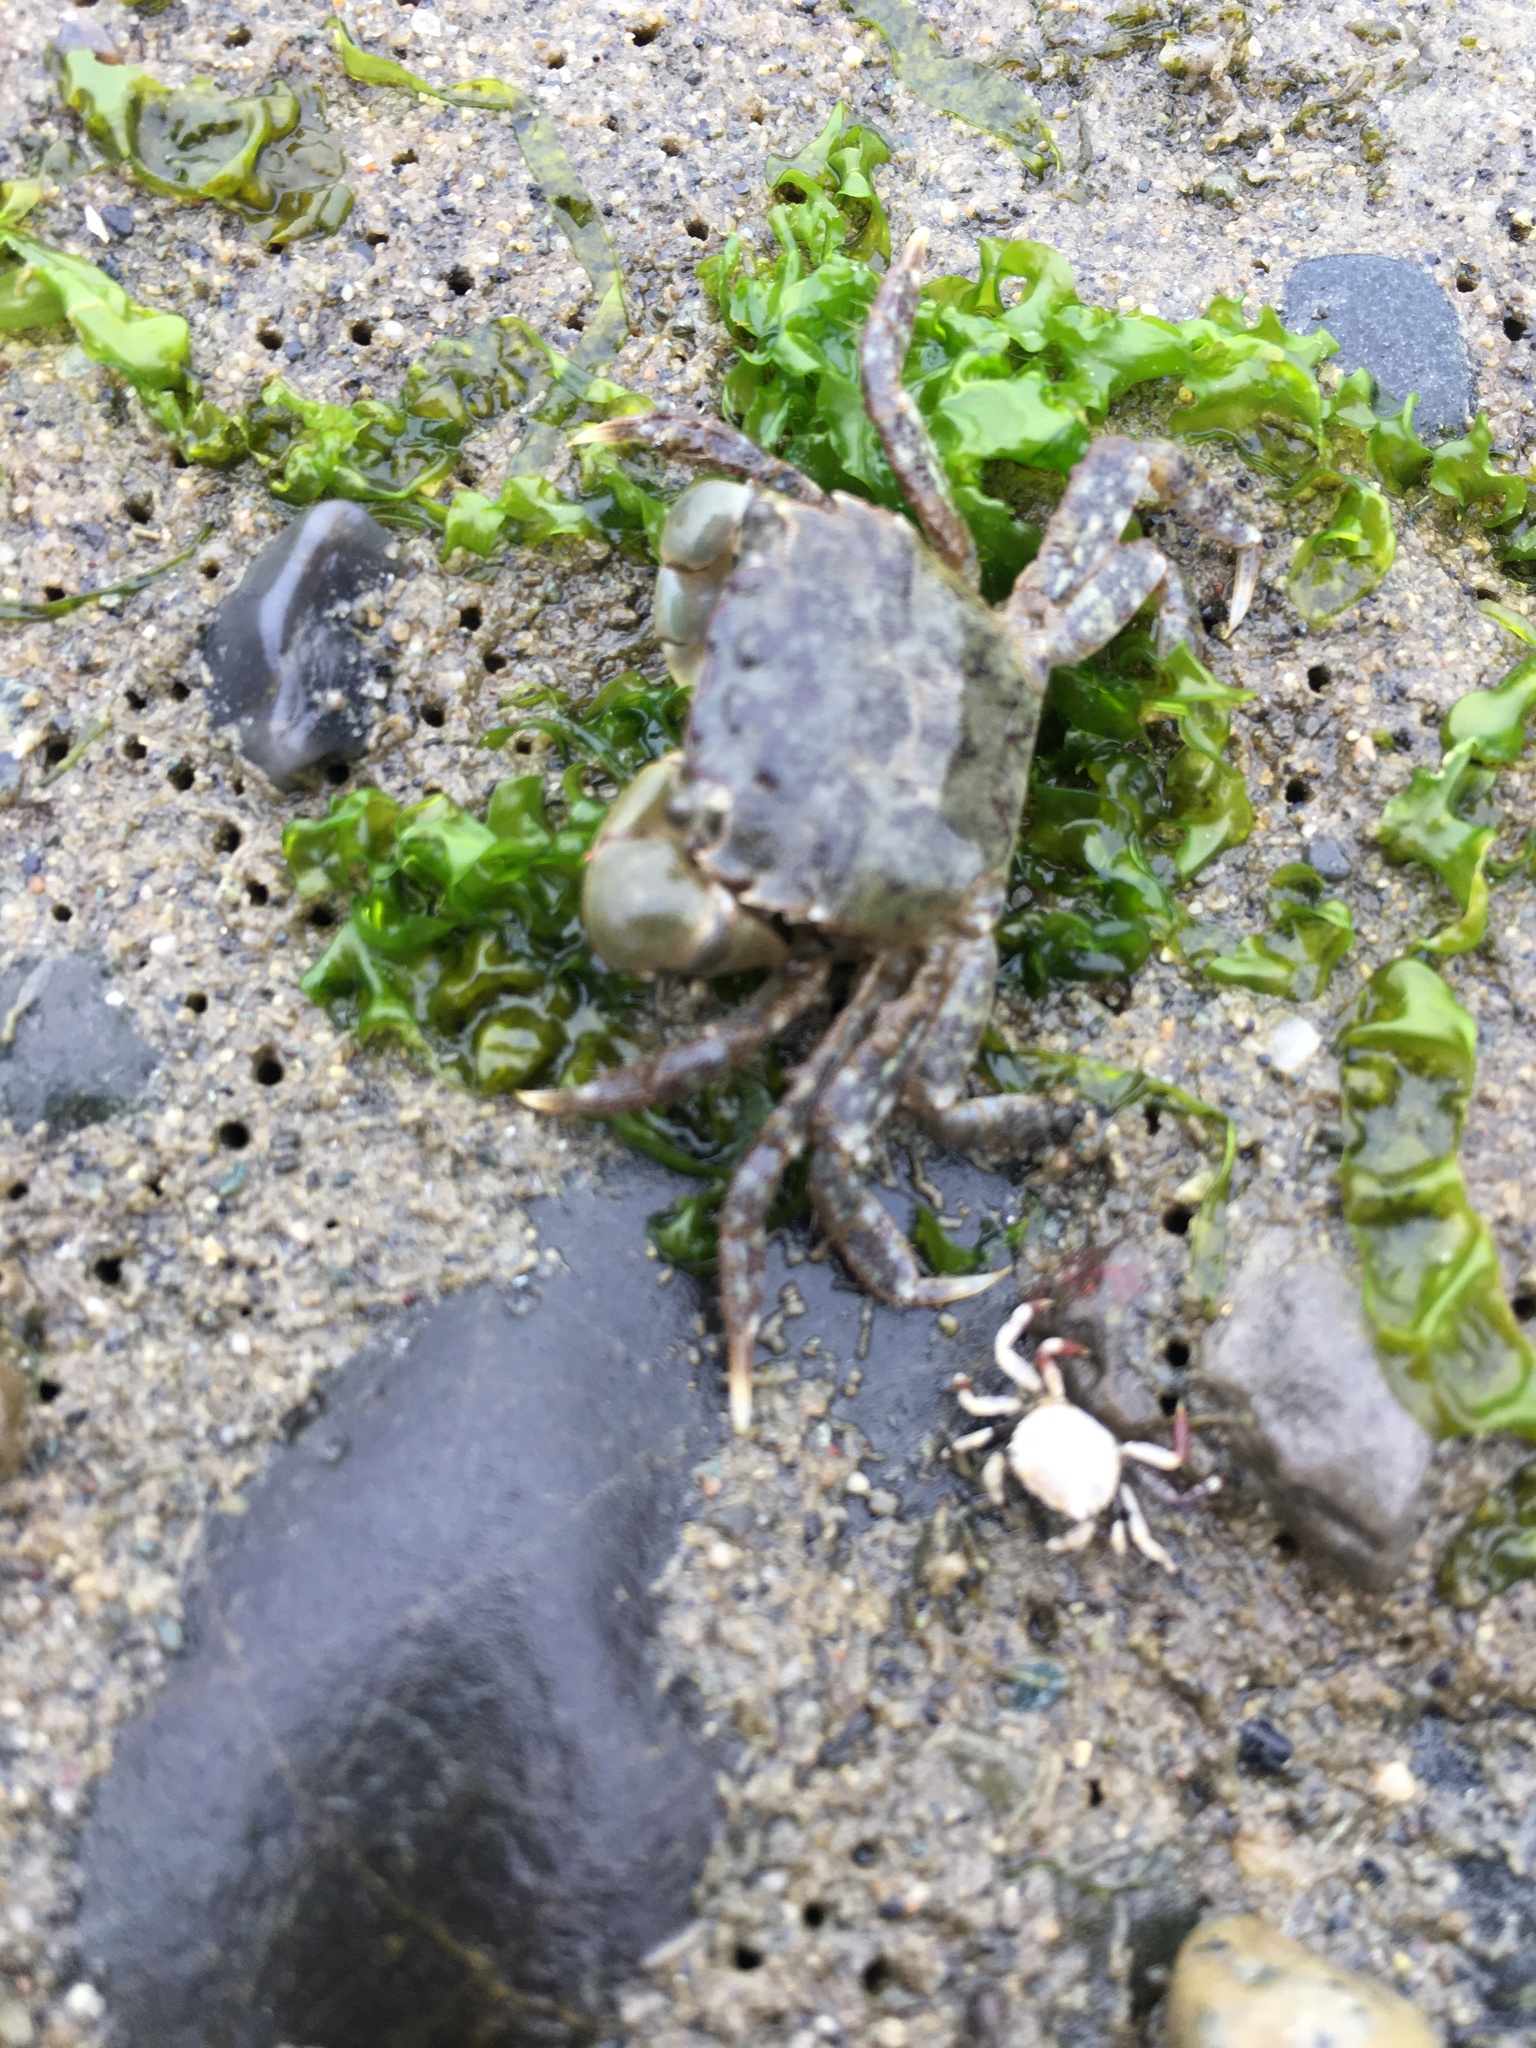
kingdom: Animalia
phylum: Arthropoda
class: Malacostraca
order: Decapoda
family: Varunidae
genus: Hemigrapsus
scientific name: Hemigrapsus oregonensis
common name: Yellow shore crab
